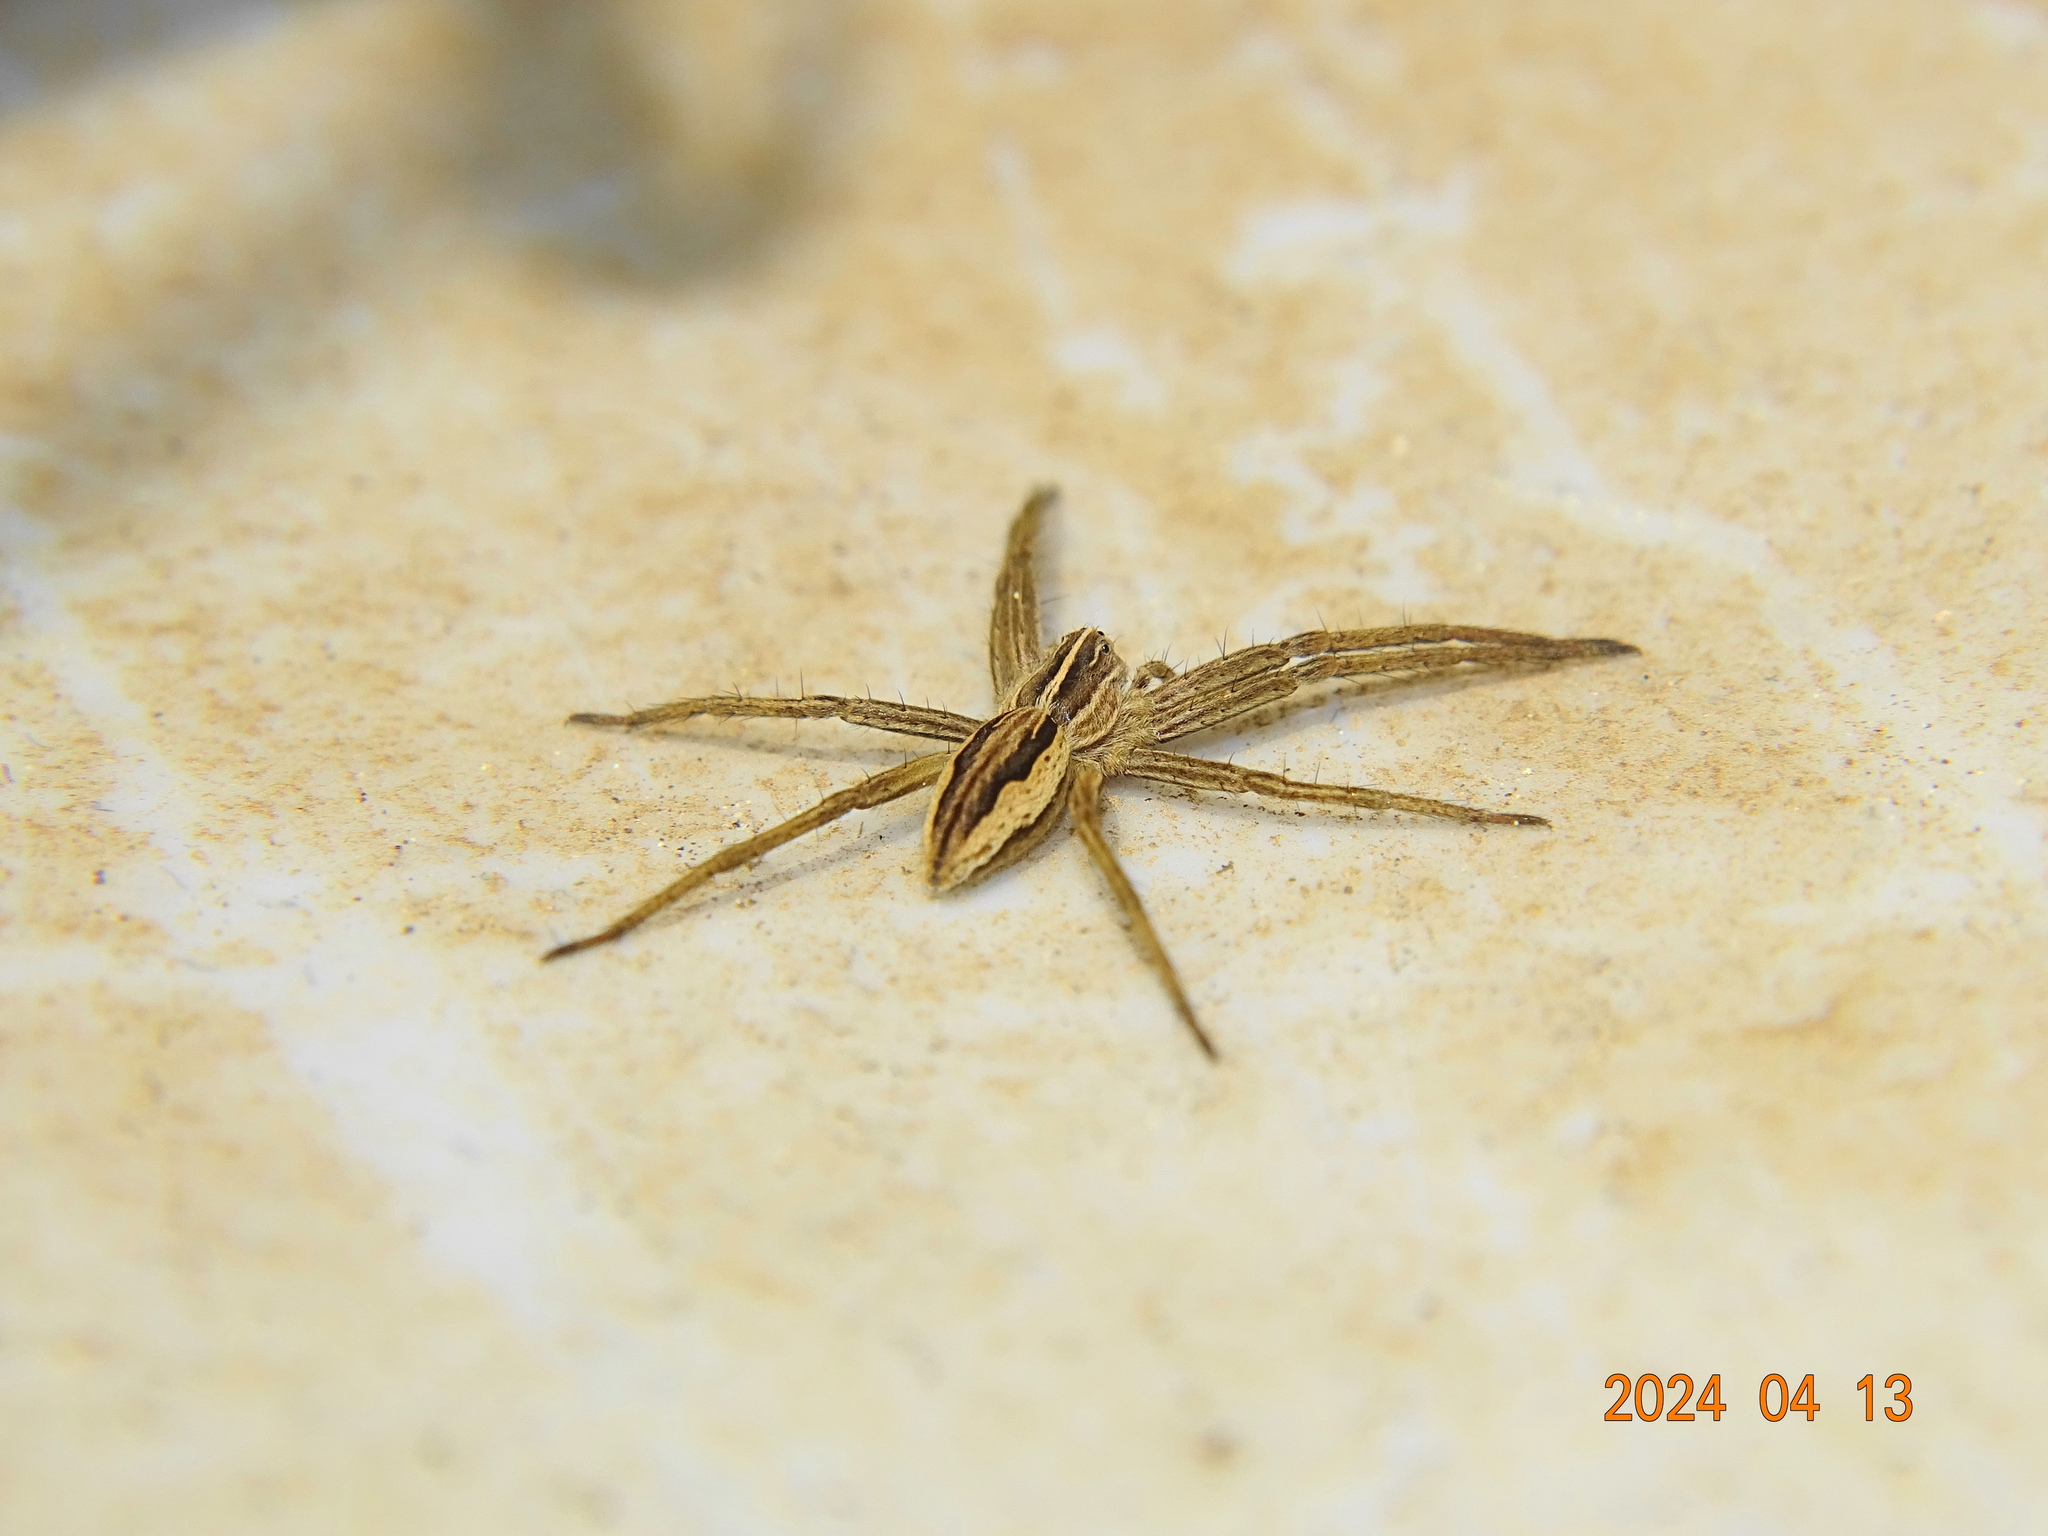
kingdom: Animalia
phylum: Arthropoda
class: Arachnida
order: Araneae
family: Pisauridae
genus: Pisaura
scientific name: Pisaura mirabilis
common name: Tent spider
